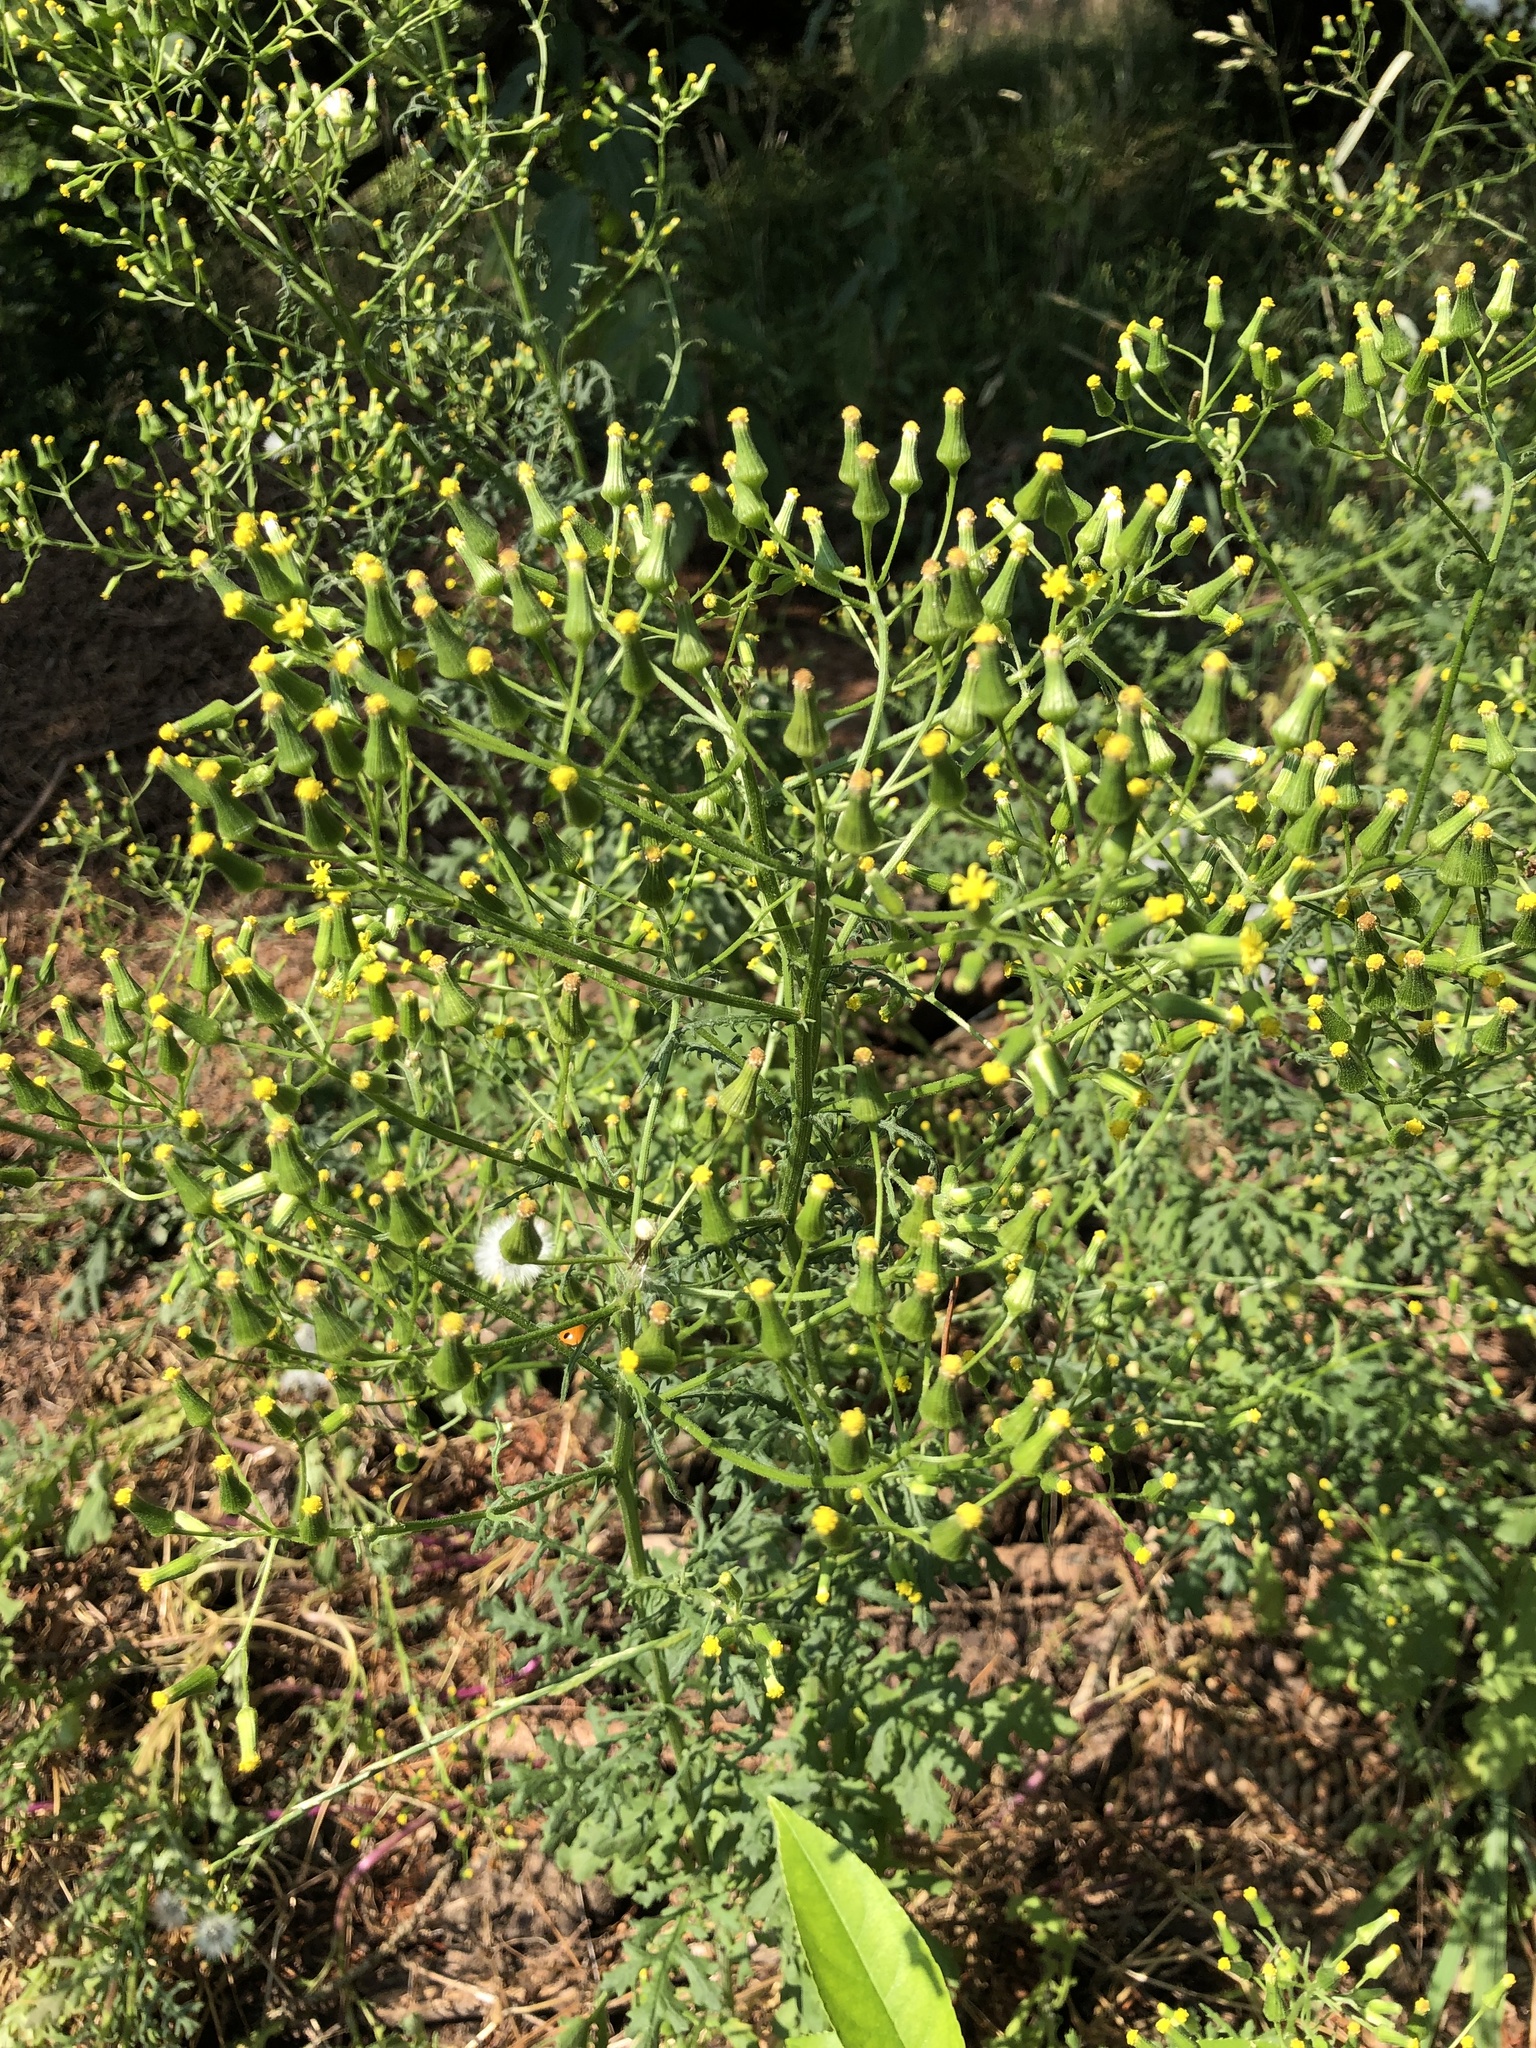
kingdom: Plantae
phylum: Tracheophyta
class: Magnoliopsida
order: Asterales
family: Asteraceae
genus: Senecio
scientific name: Senecio sylvaticus
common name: Woodland ragwort
